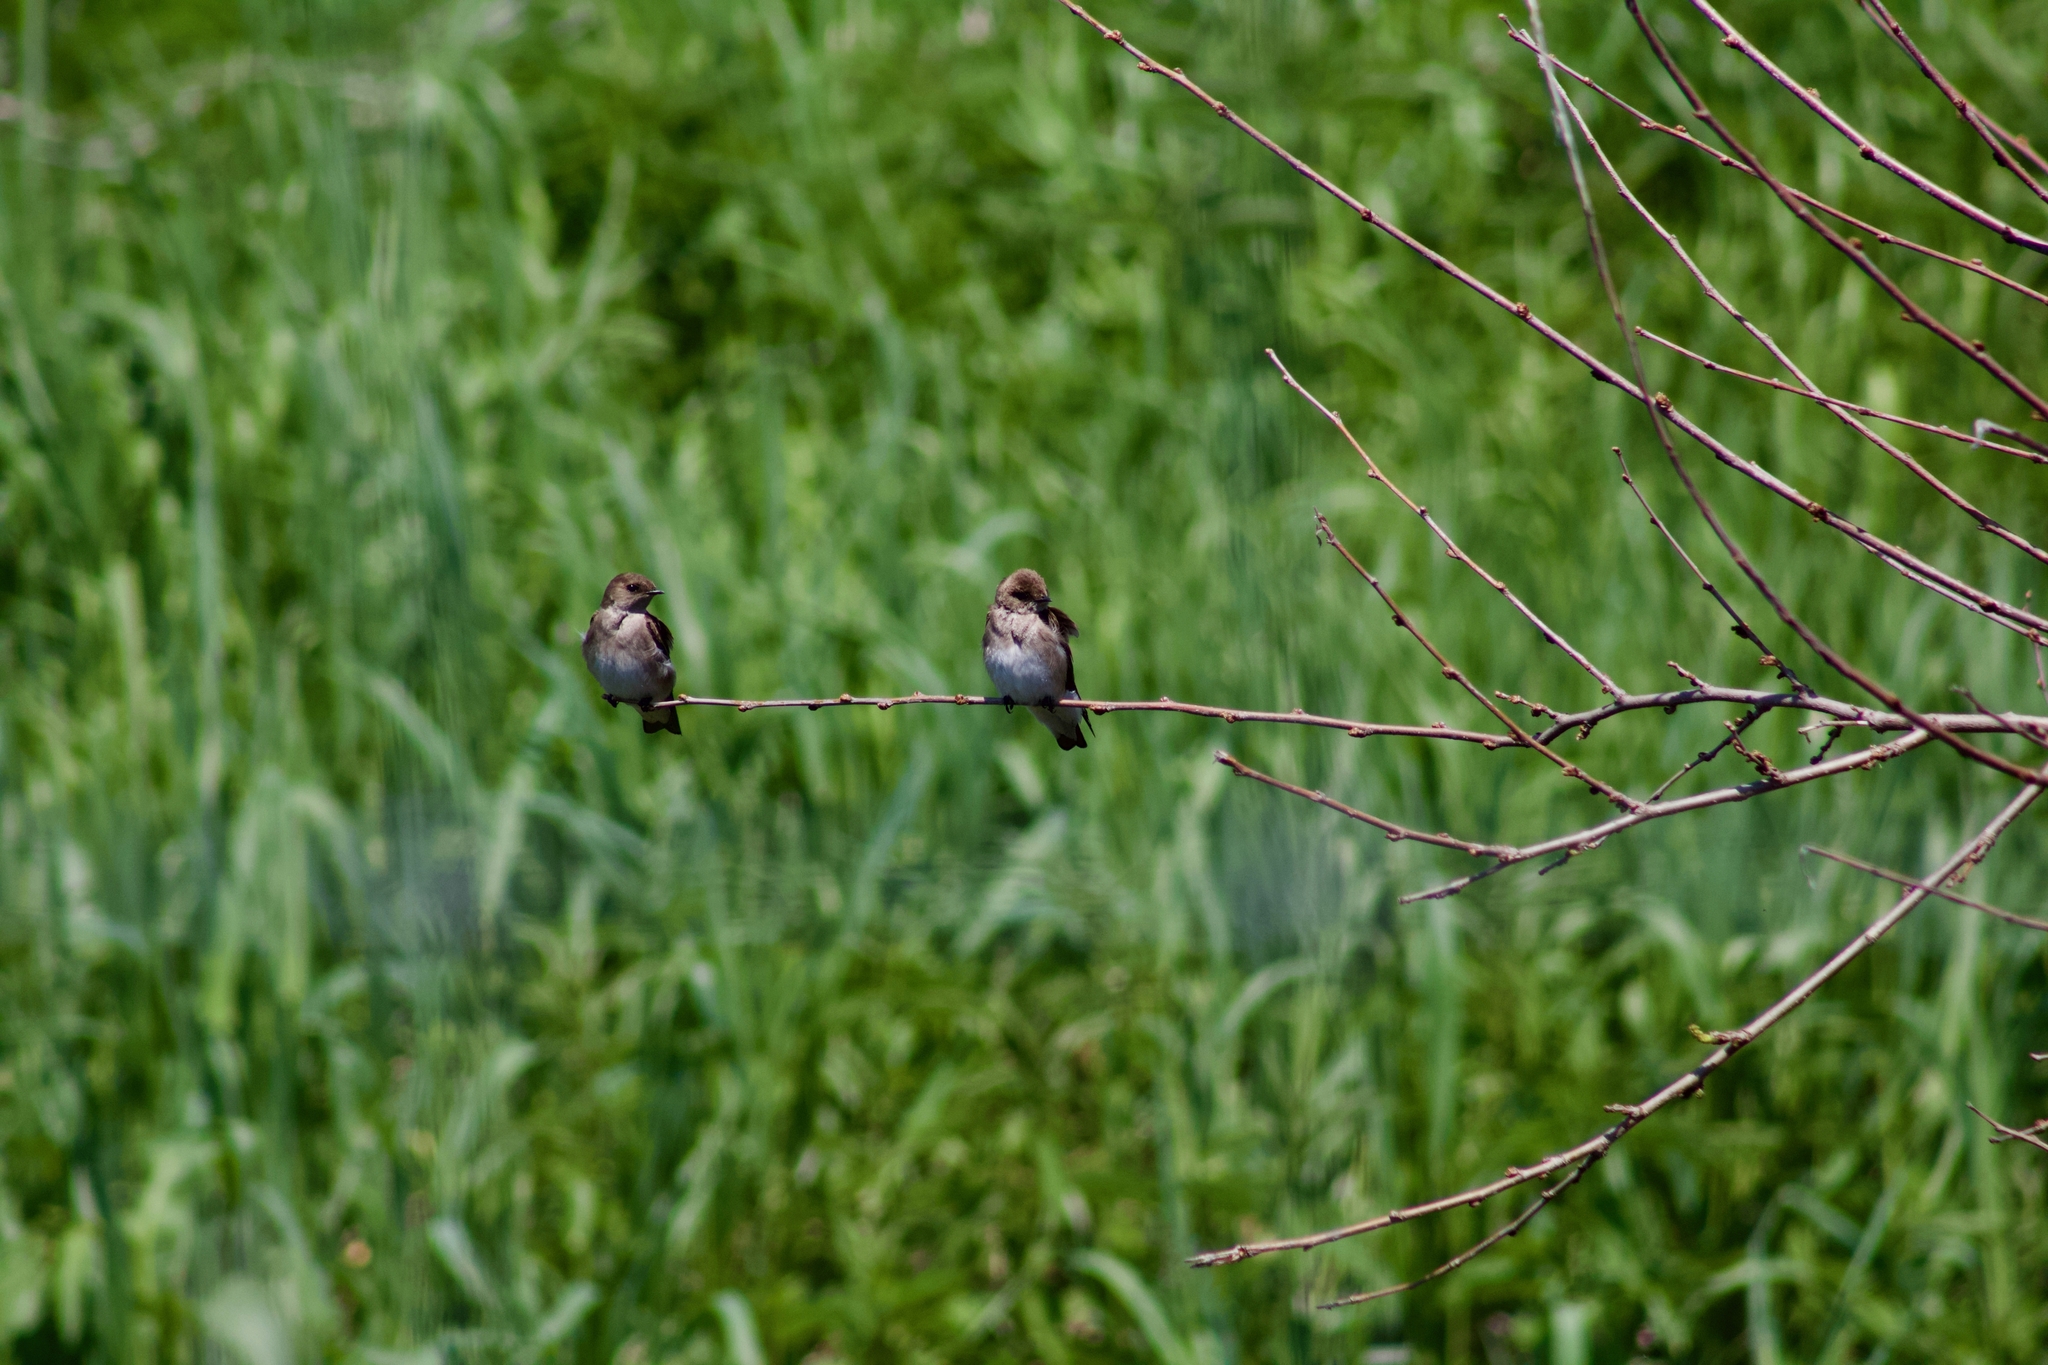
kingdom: Animalia
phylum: Chordata
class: Aves
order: Passeriformes
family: Hirundinidae
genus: Stelgidopteryx
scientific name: Stelgidopteryx serripennis
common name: Northern rough-winged swallow
